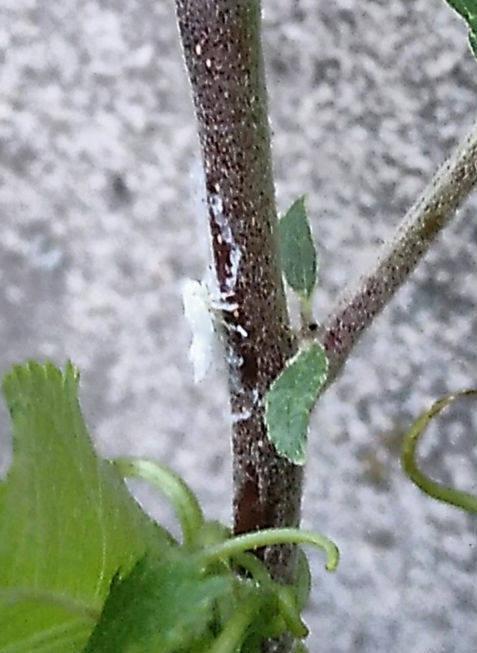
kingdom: Animalia
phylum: Arthropoda
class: Insecta
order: Hemiptera
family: Flatidae
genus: Metcalfa
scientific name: Metcalfa pruinosa
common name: Citrus flatid planthopper
